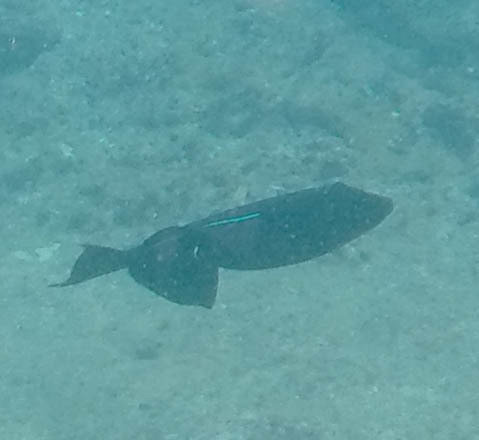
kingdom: Animalia
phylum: Chordata
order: Tetraodontiformes
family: Balistidae
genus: Melichthys
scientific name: Melichthys niger
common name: Black durgon
